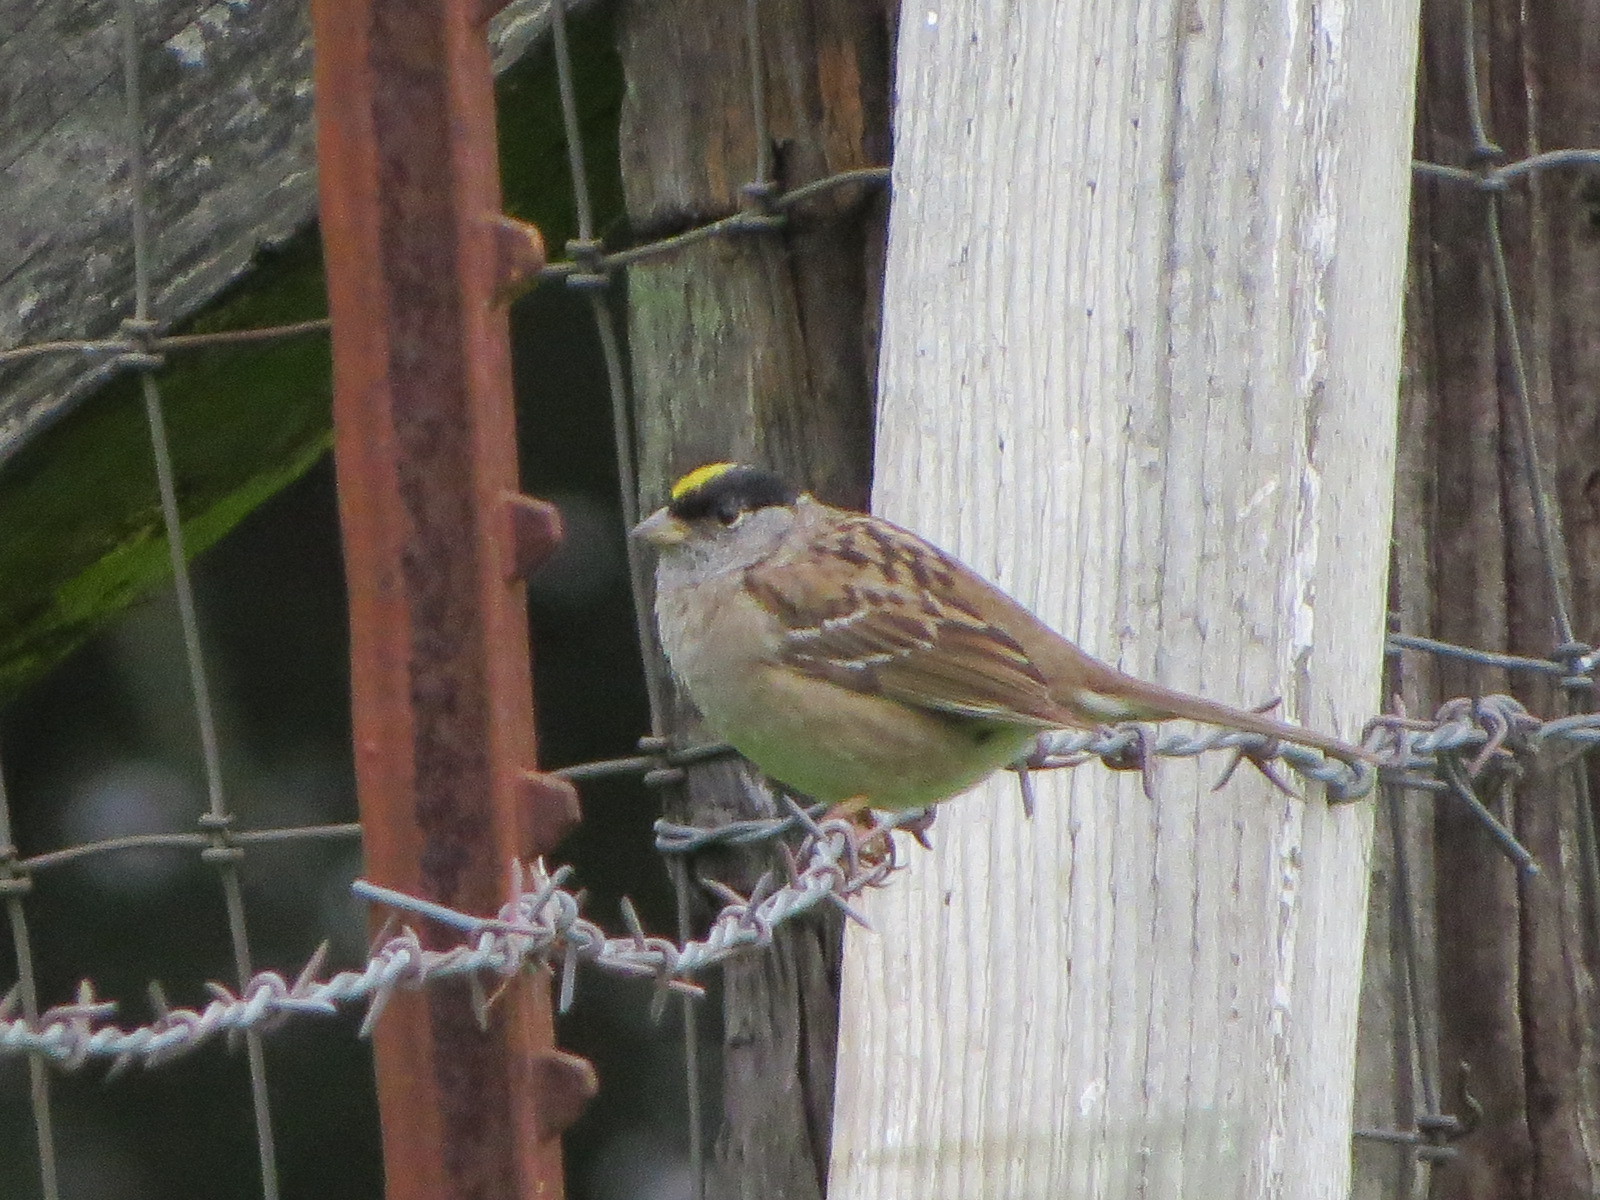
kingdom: Animalia
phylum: Chordata
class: Aves
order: Passeriformes
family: Passerellidae
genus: Zonotrichia
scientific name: Zonotrichia atricapilla
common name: Golden-crowned sparrow
